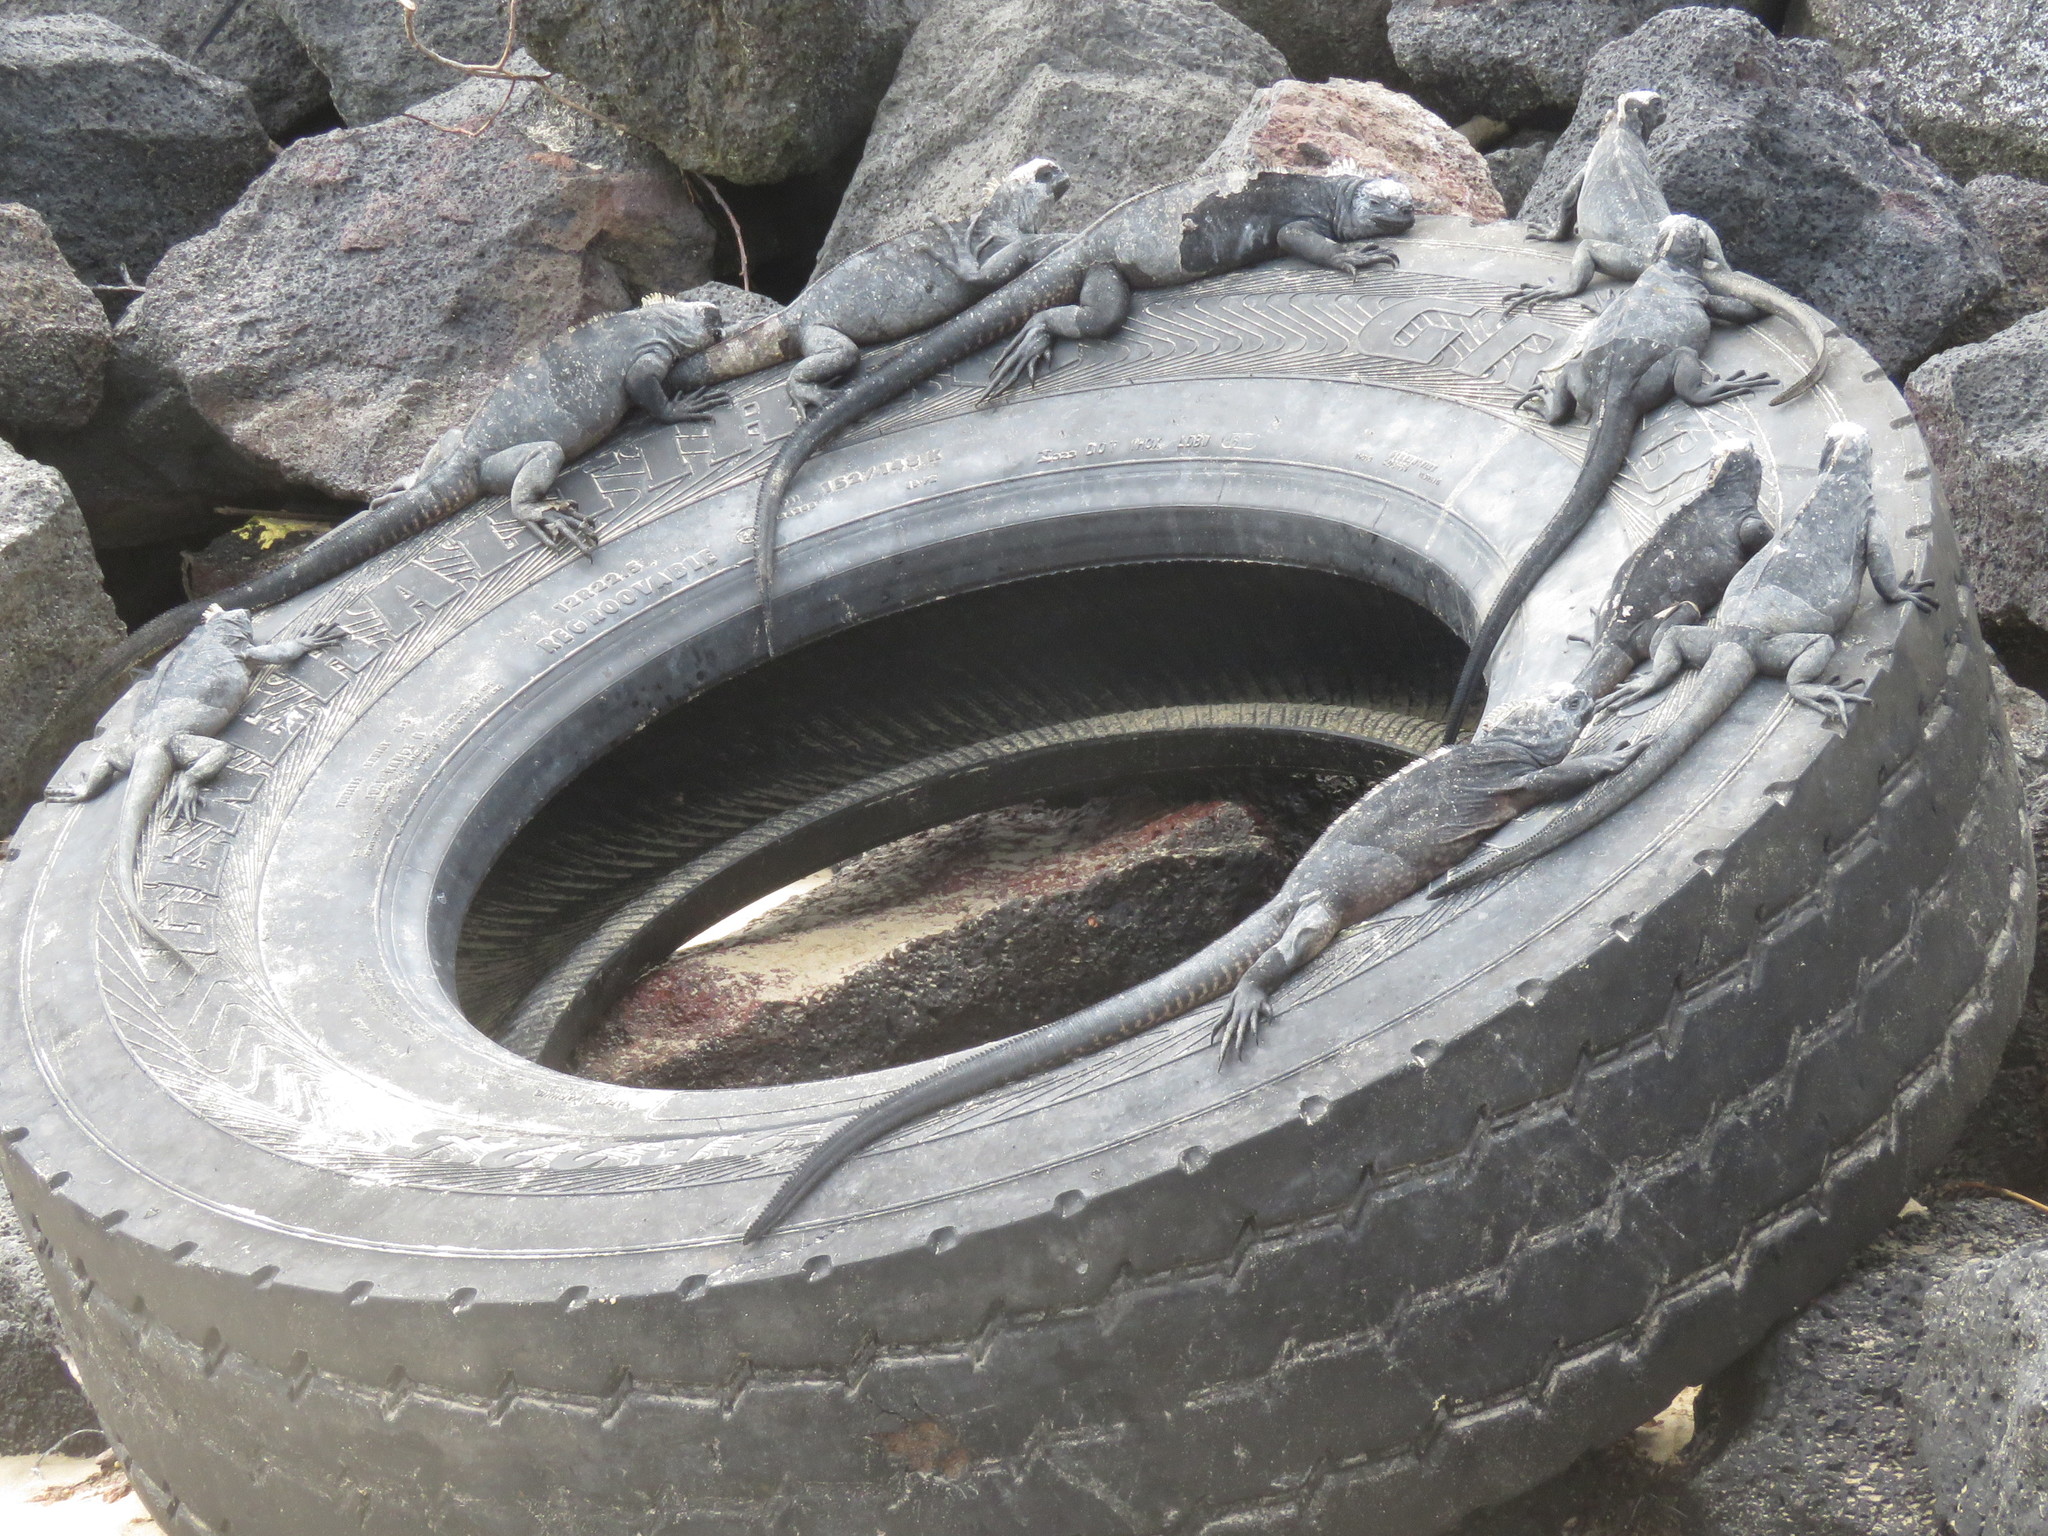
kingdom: Animalia
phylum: Chordata
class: Squamata
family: Iguanidae
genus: Amblyrhynchus
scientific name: Amblyrhynchus cristatus
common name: Marine iguana
